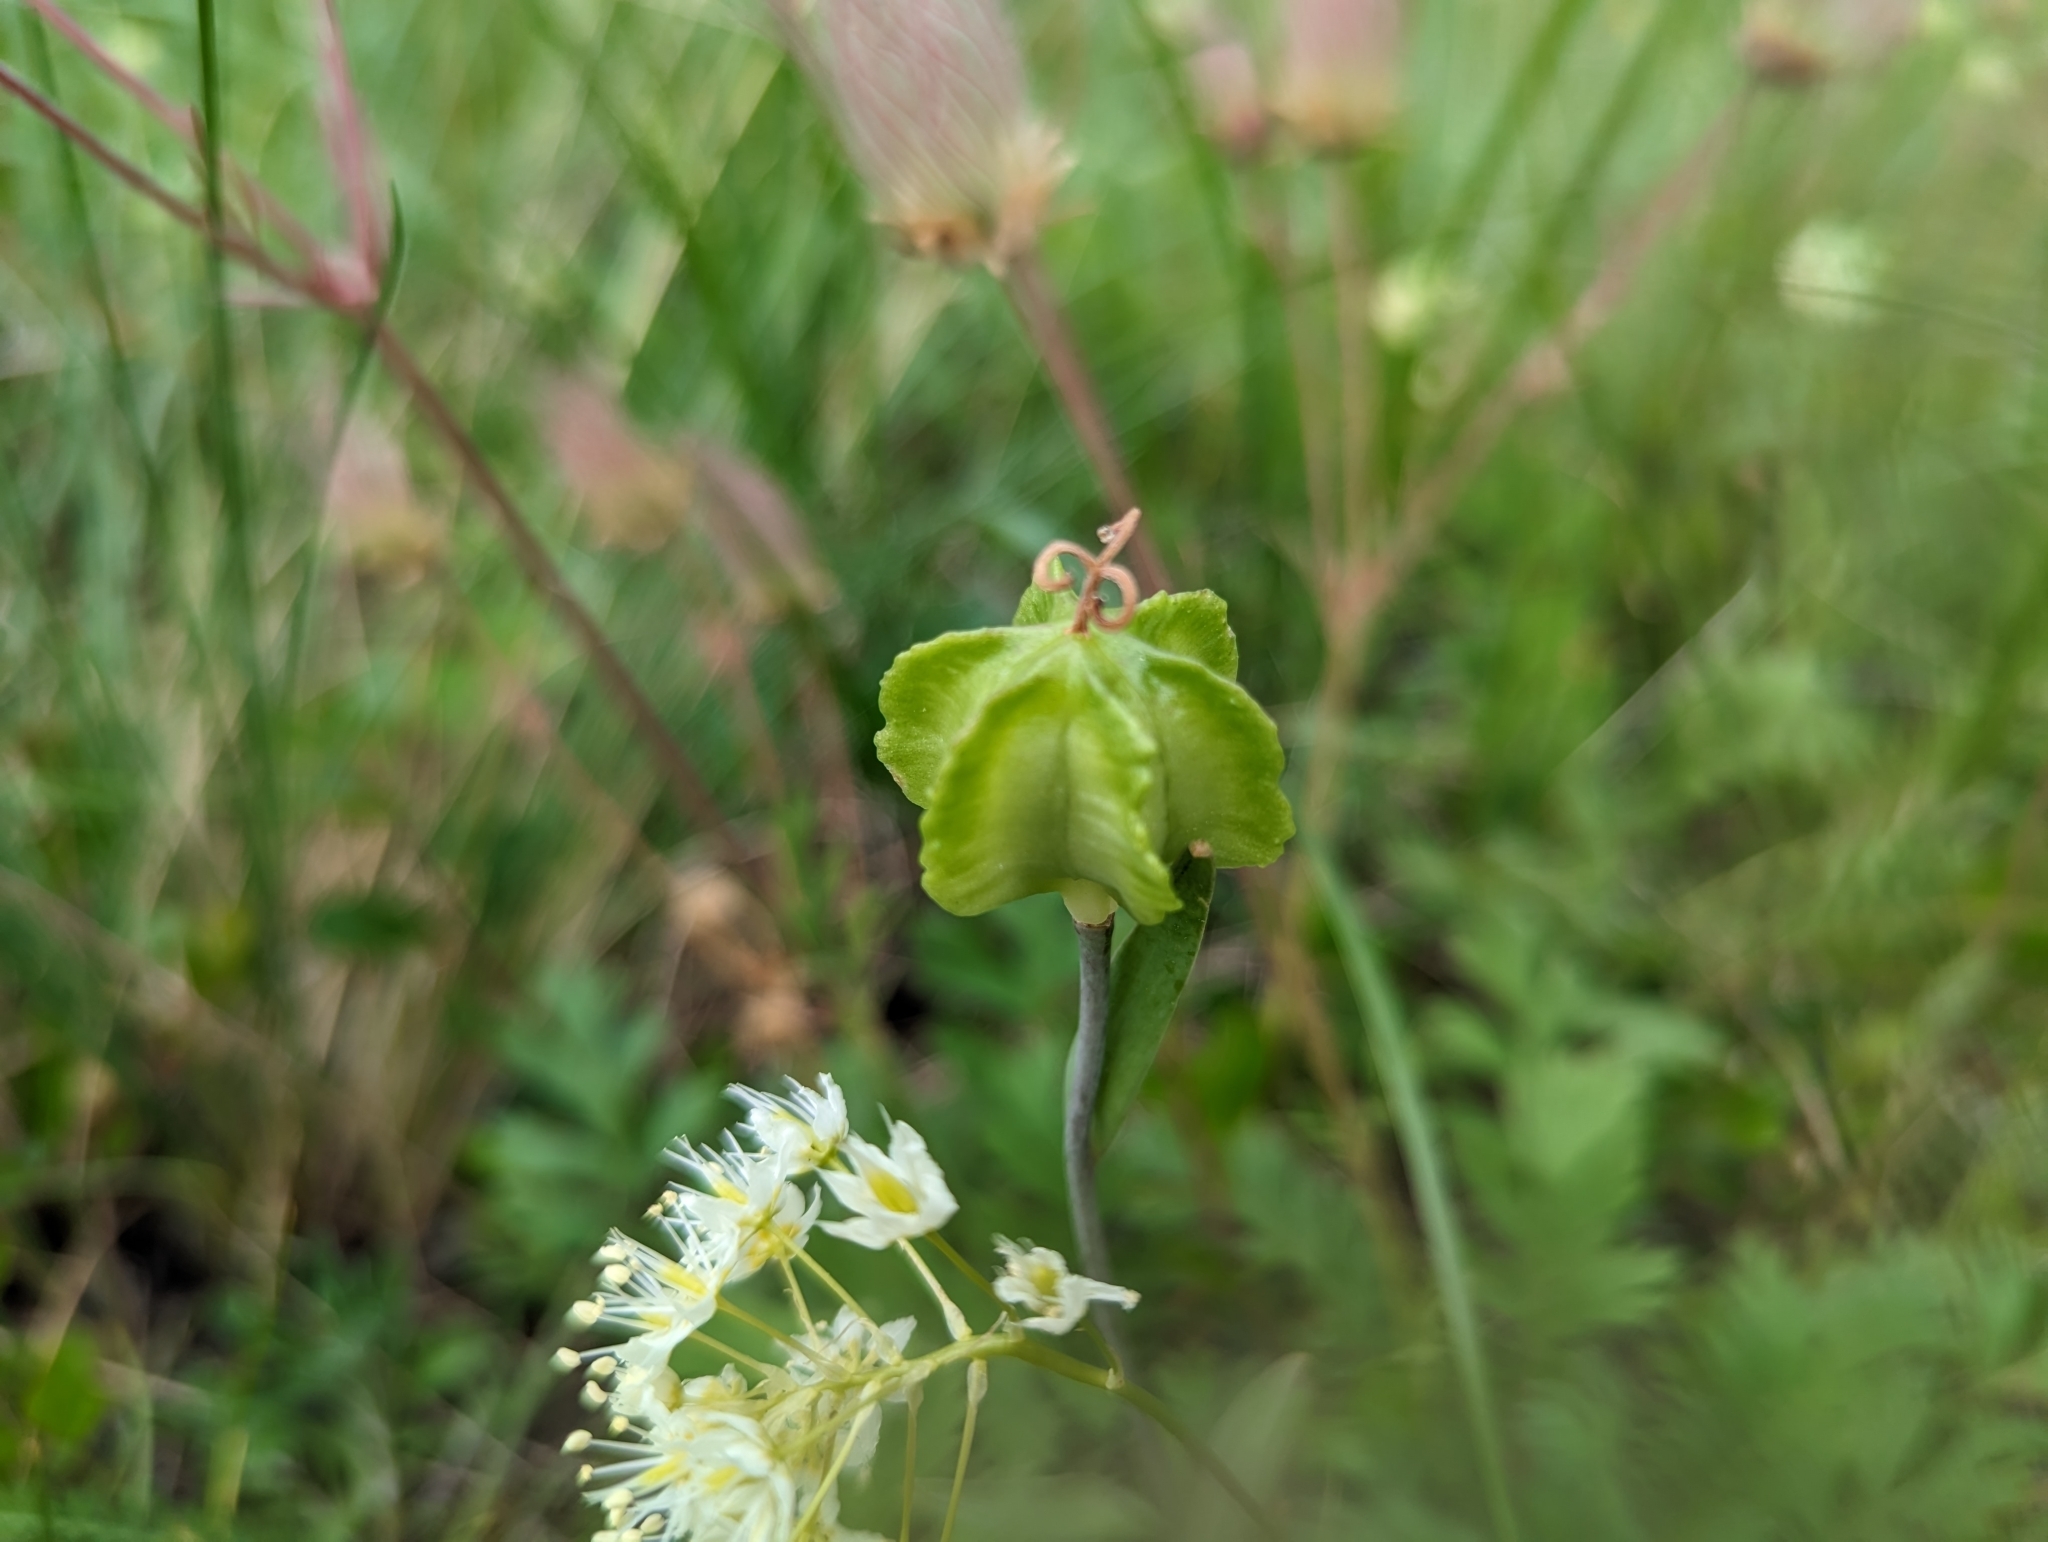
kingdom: Plantae
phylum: Tracheophyta
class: Liliopsida
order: Liliales
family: Liliaceae
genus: Fritillaria
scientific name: Fritillaria affinis
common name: Ojai fritillary
